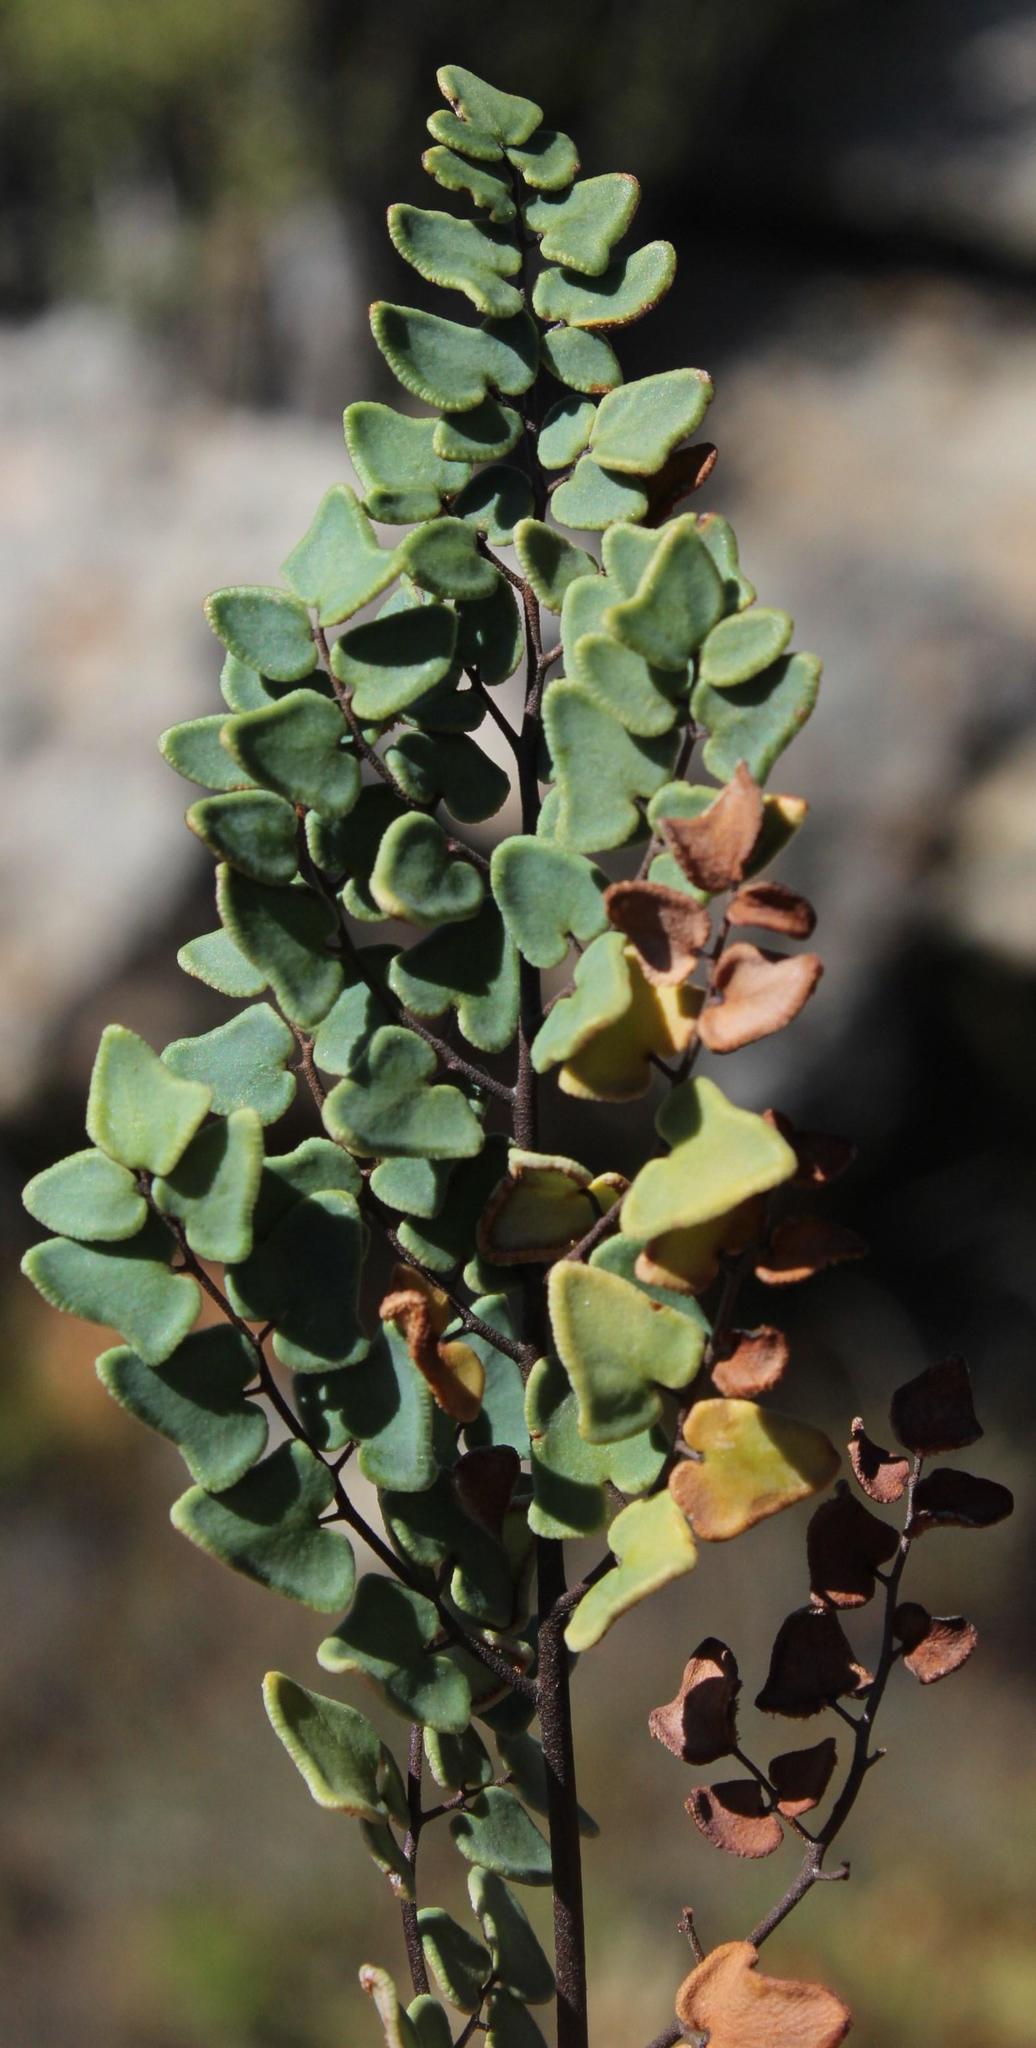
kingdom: Plantae
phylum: Tracheophyta
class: Polypodiopsida
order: Polypodiales
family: Pteridaceae
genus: Pellaea
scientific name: Pellaea calomelanos
